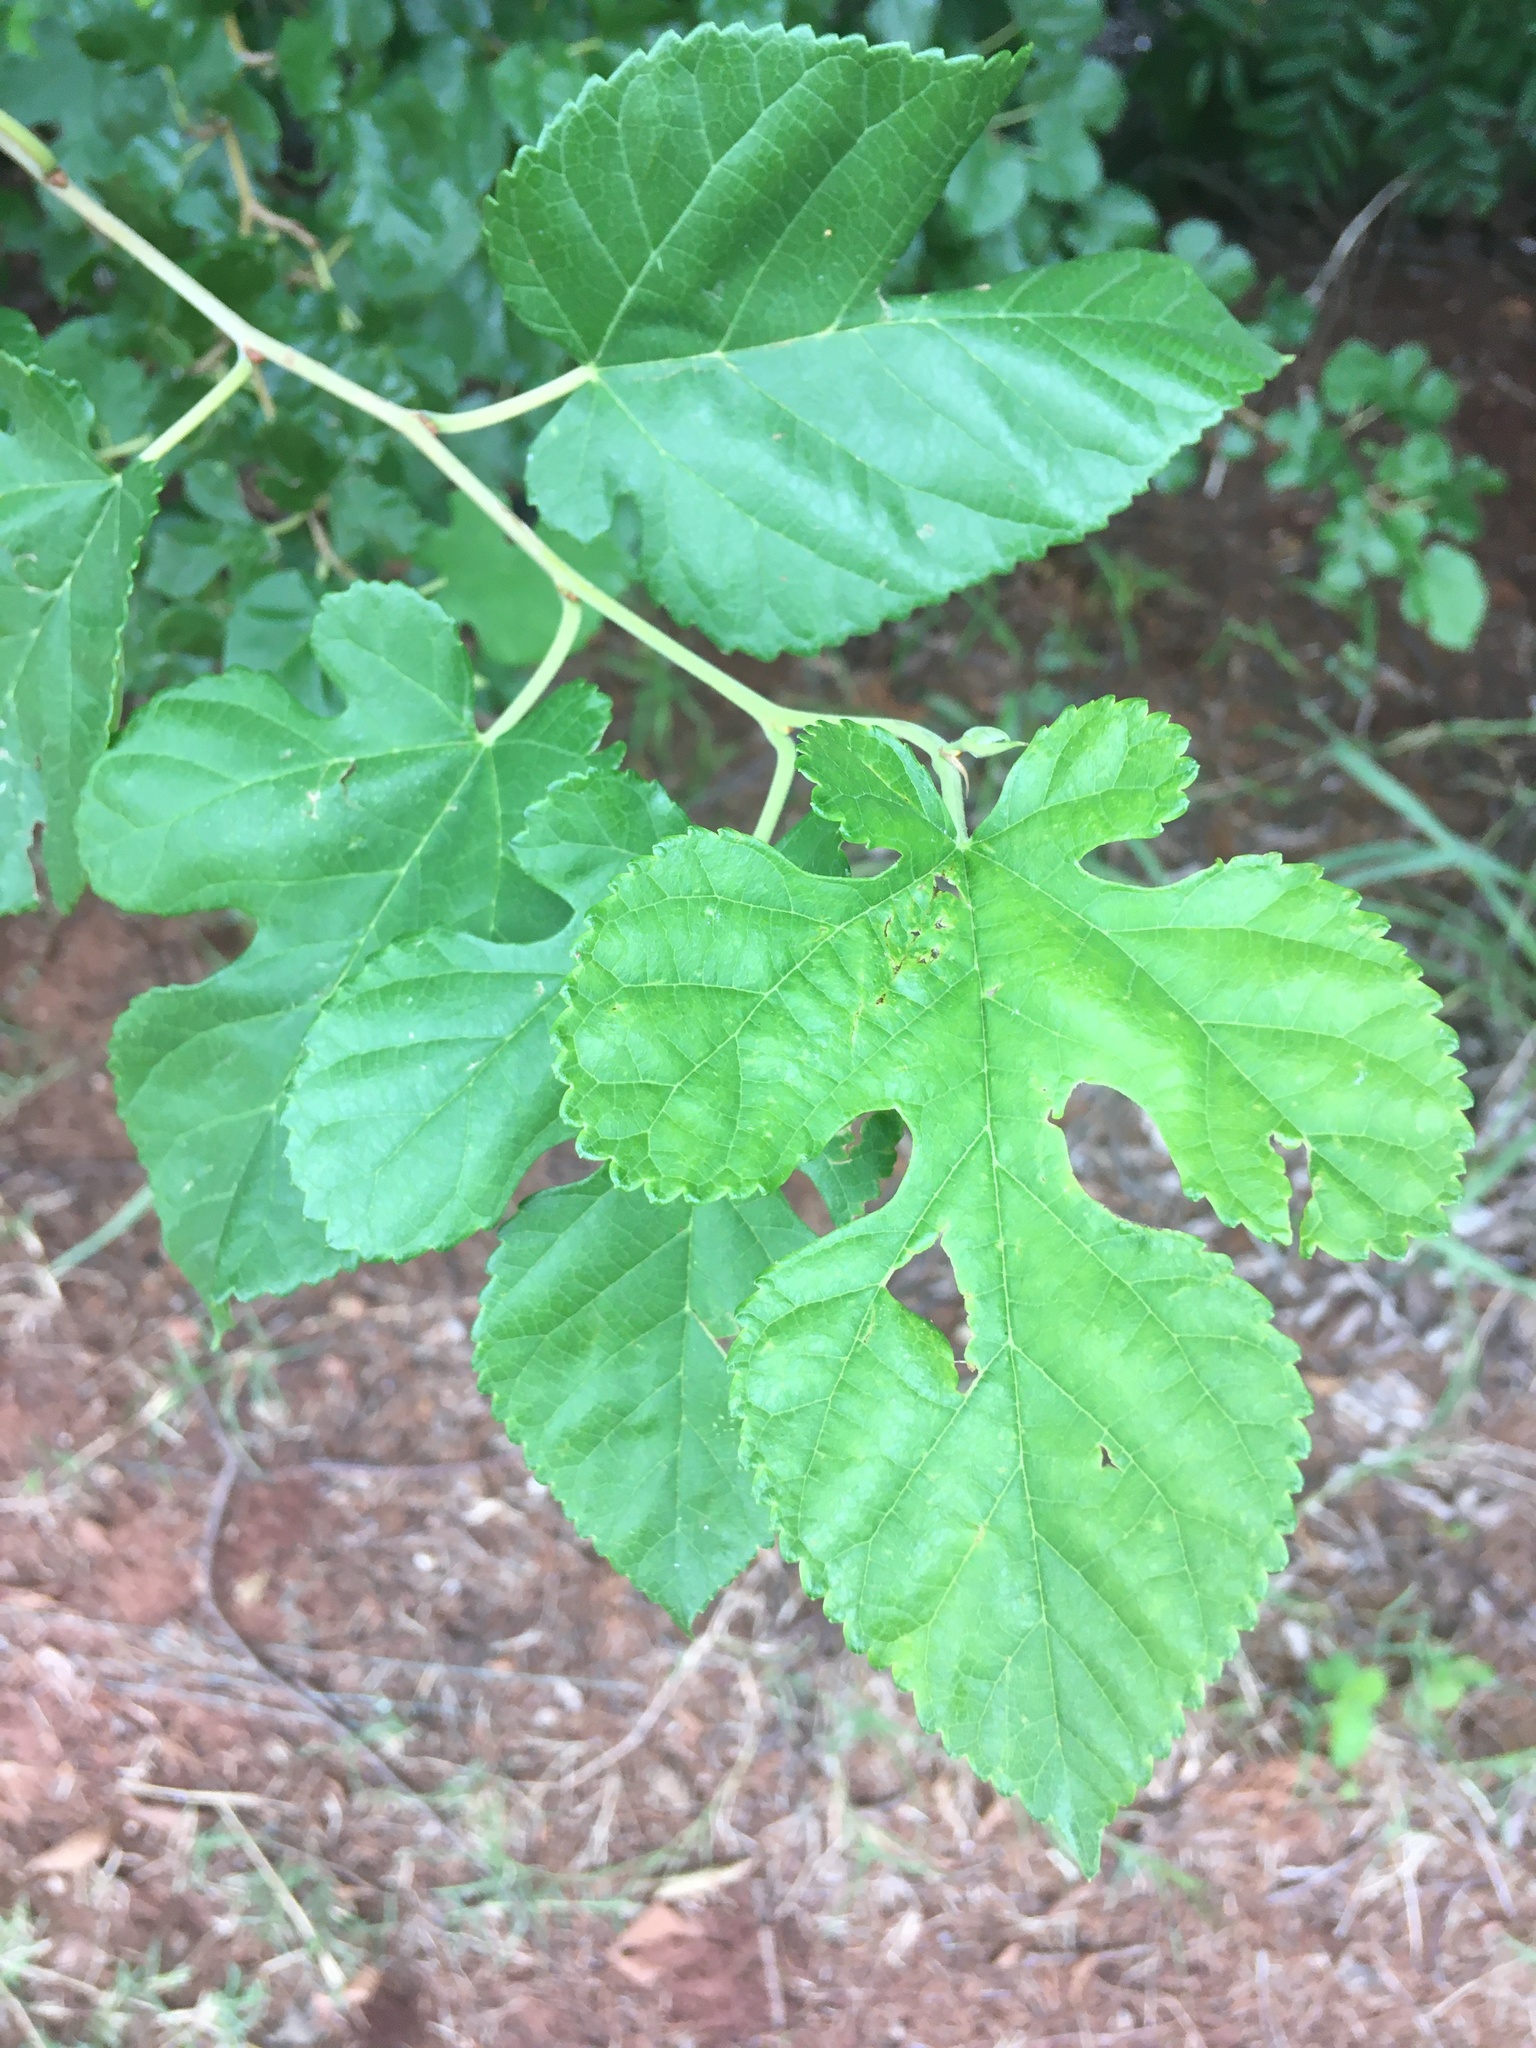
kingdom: Plantae
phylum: Tracheophyta
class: Magnoliopsida
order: Rosales
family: Moraceae
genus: Morus
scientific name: Morus alba
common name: White mulberry
